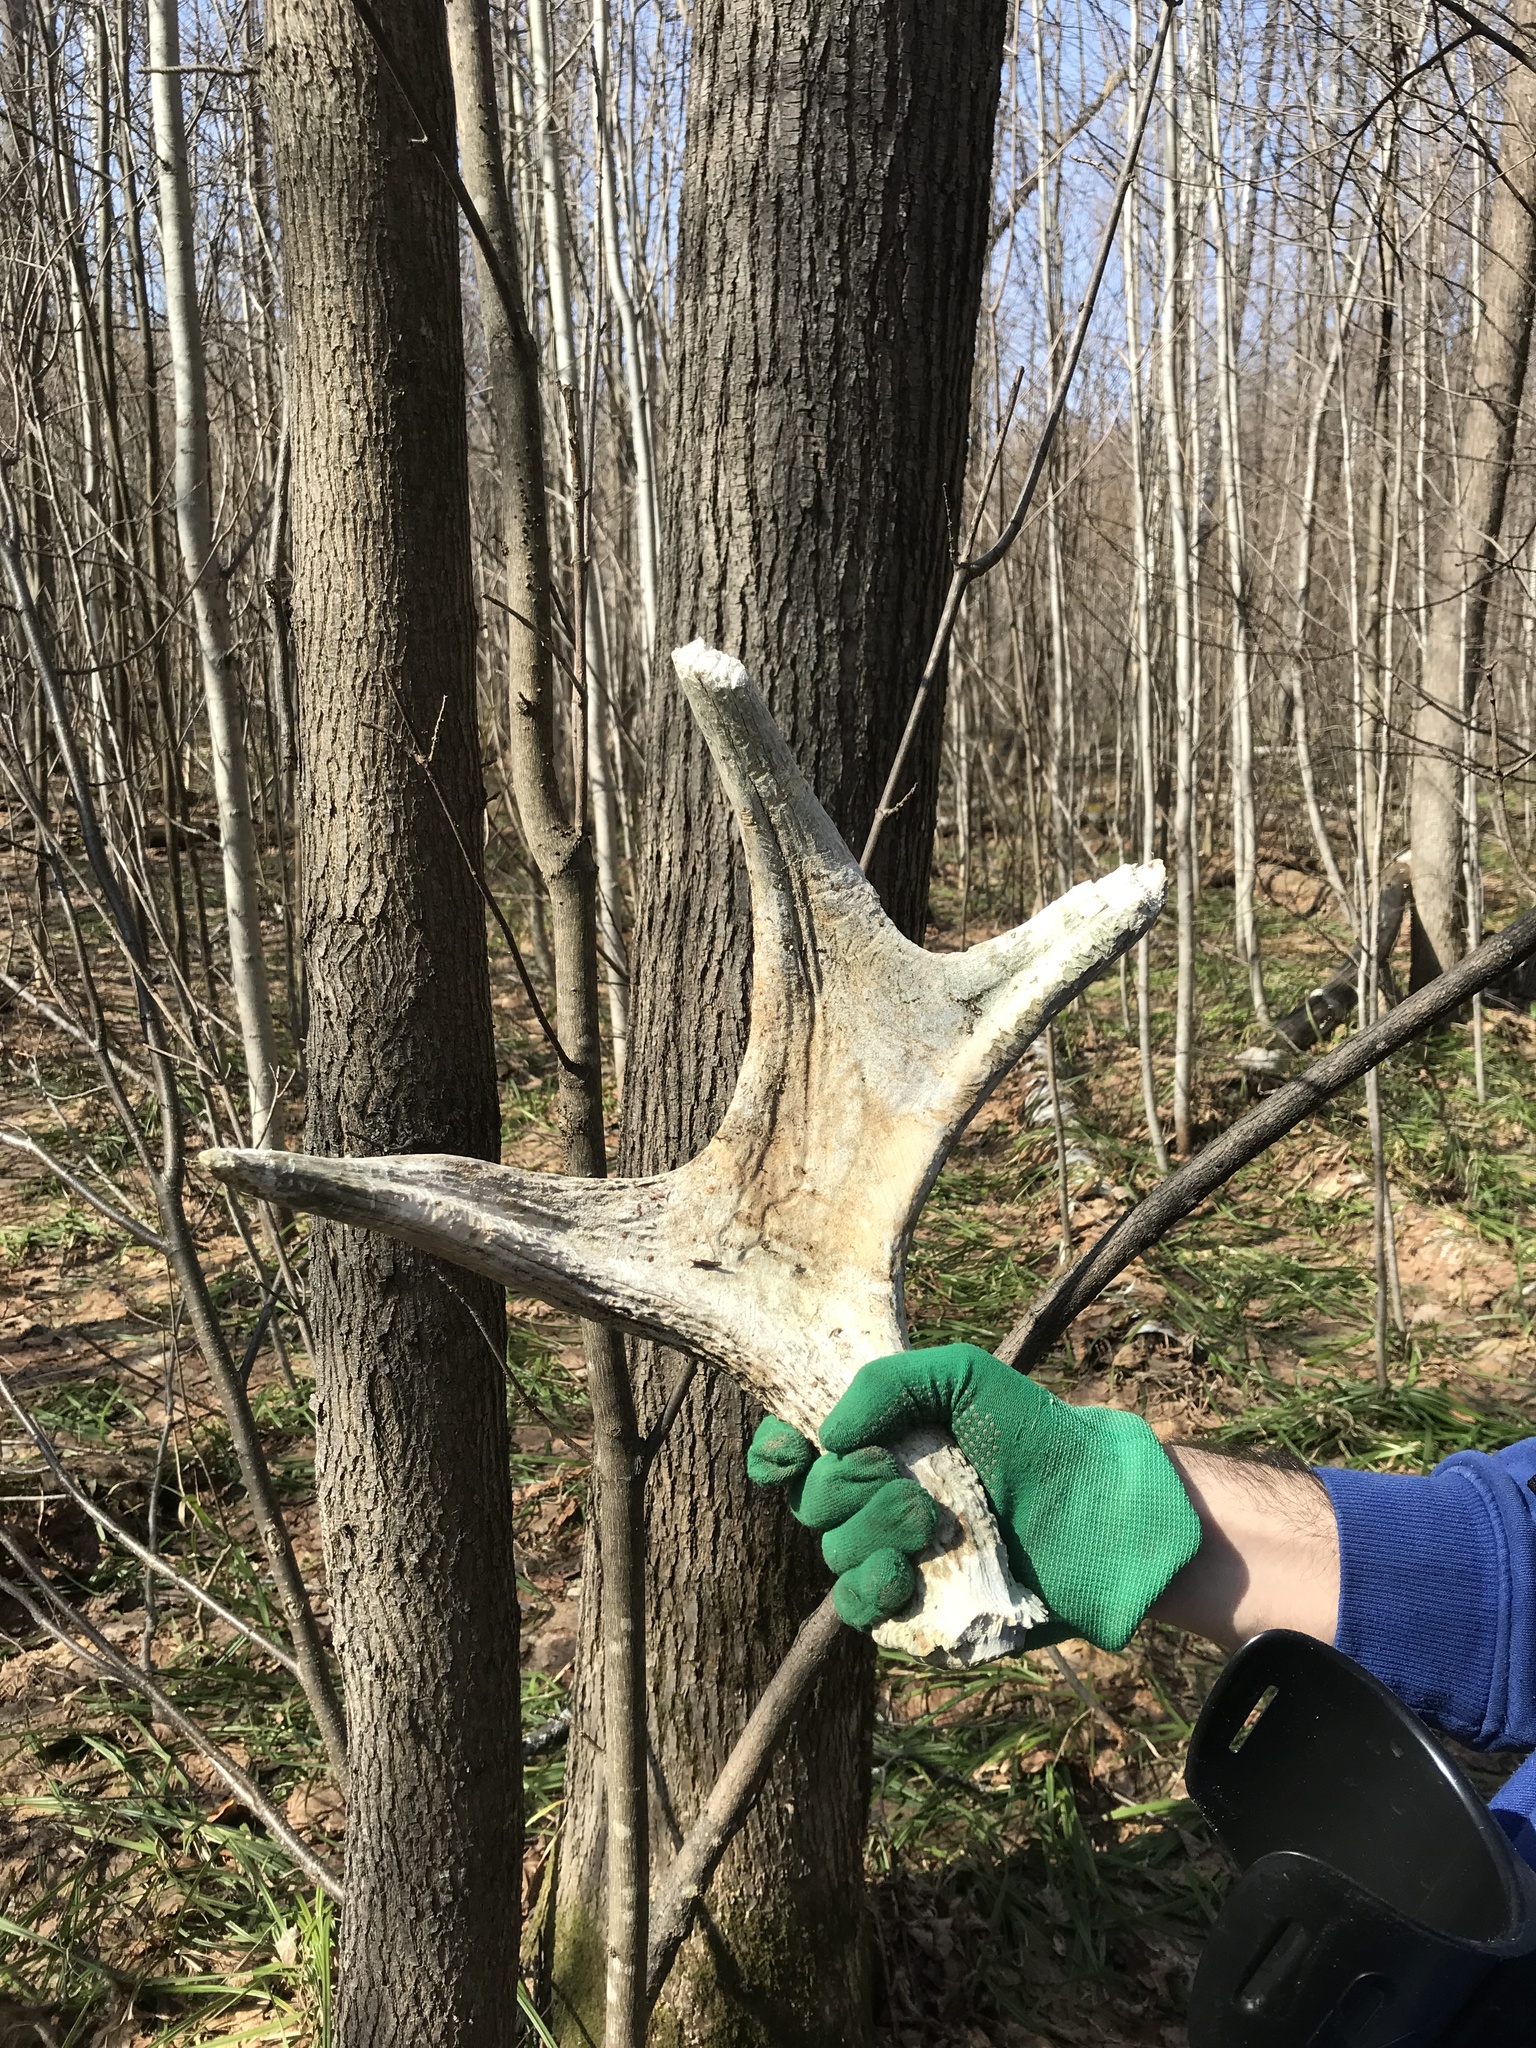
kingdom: Animalia
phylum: Chordata
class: Mammalia
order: Artiodactyla
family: Cervidae
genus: Alces
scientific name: Alces alces
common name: Moose
